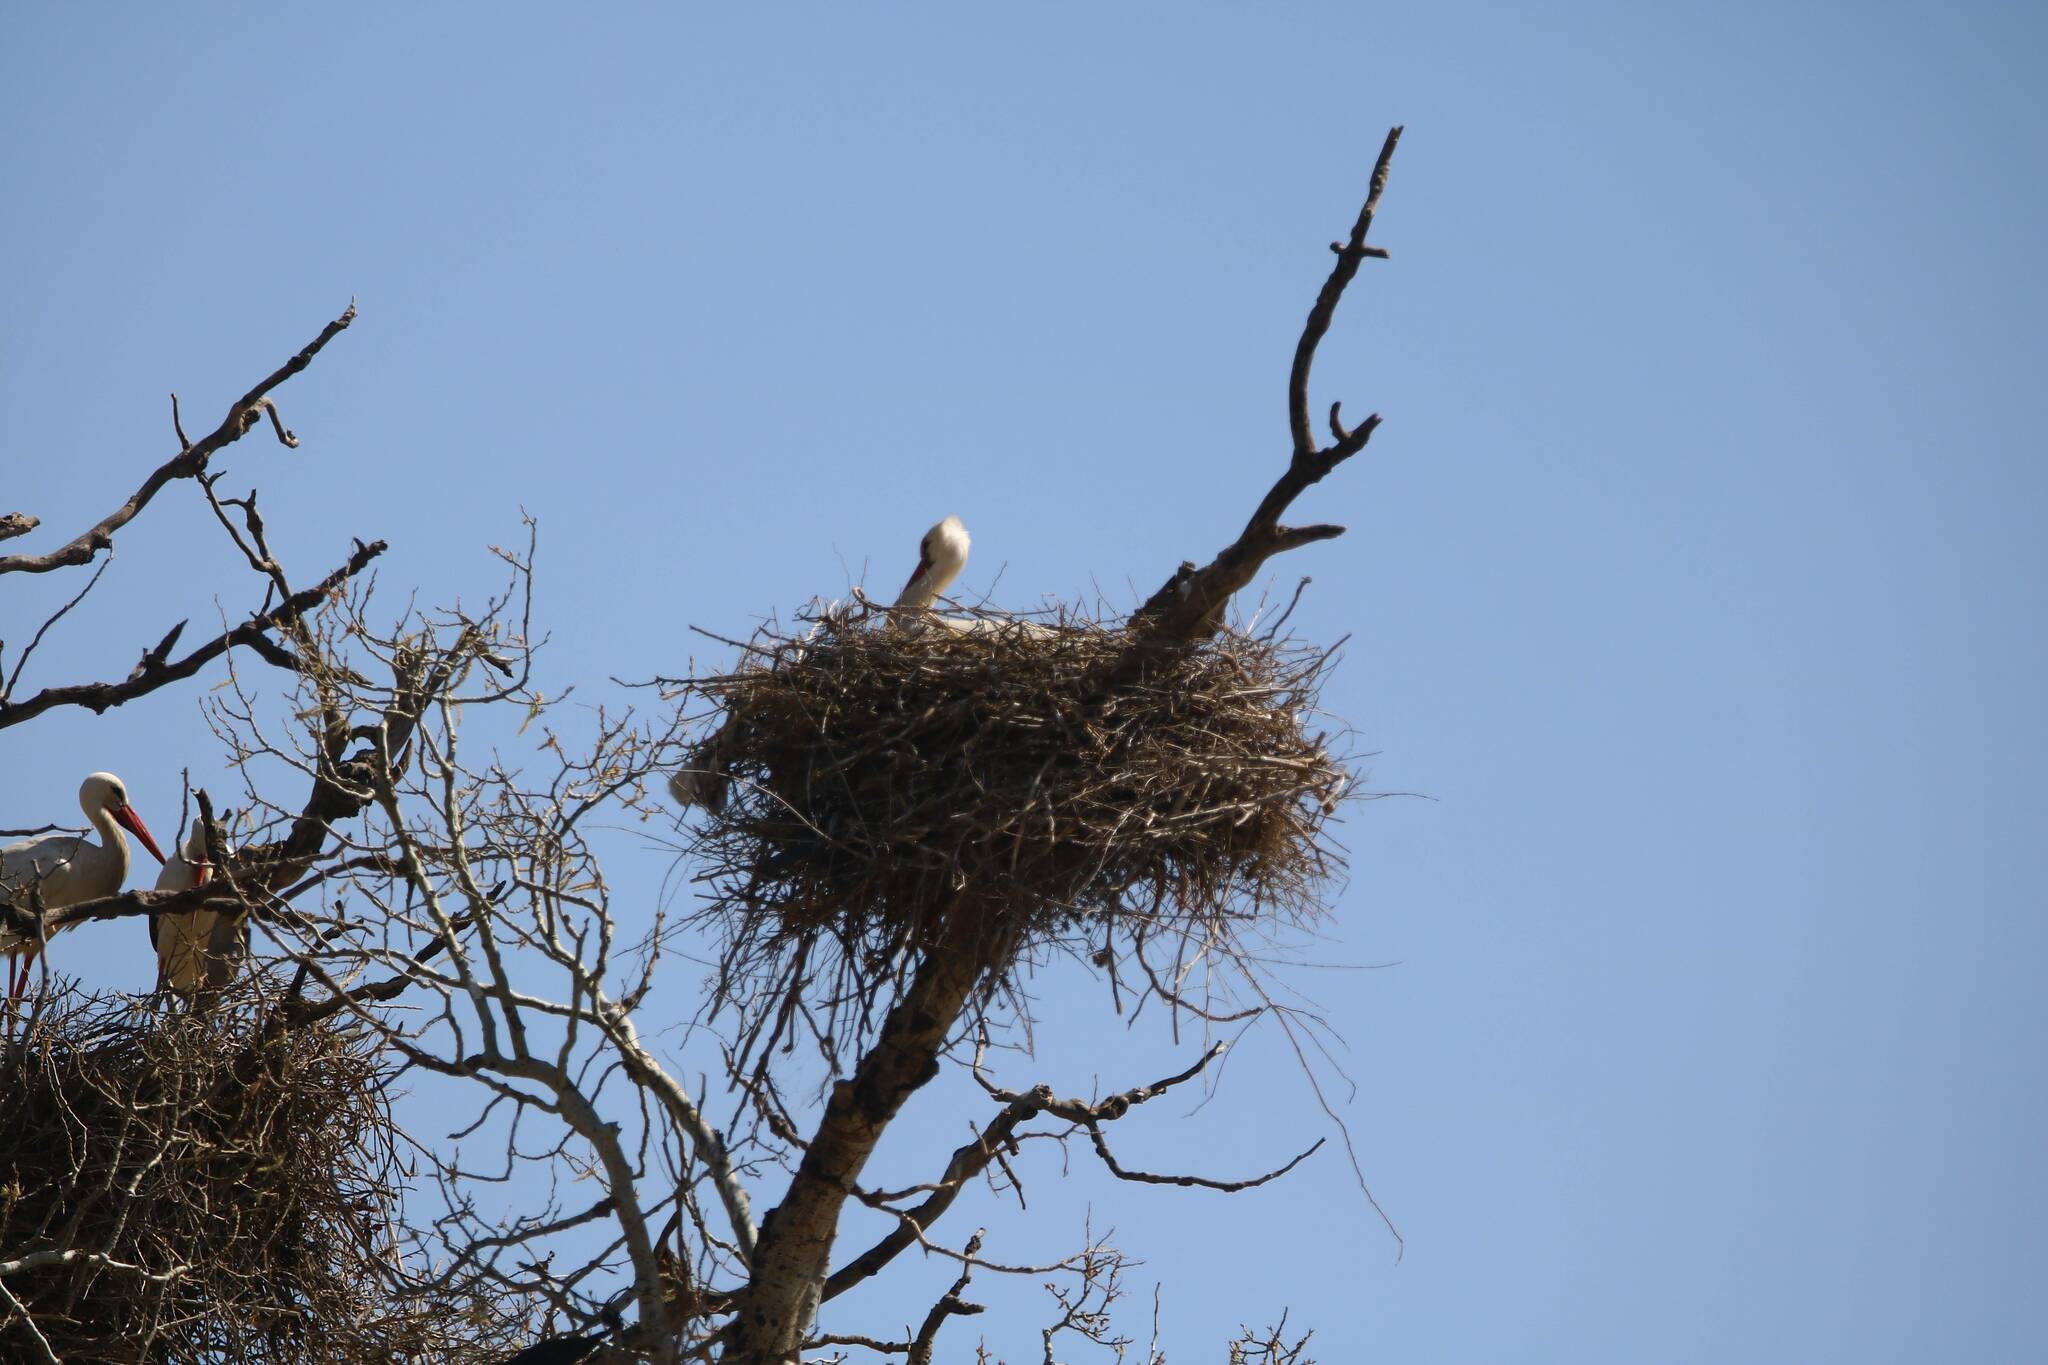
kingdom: Animalia
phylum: Chordata
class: Aves
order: Ciconiiformes
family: Ciconiidae
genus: Ciconia
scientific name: Ciconia ciconia
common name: White stork
